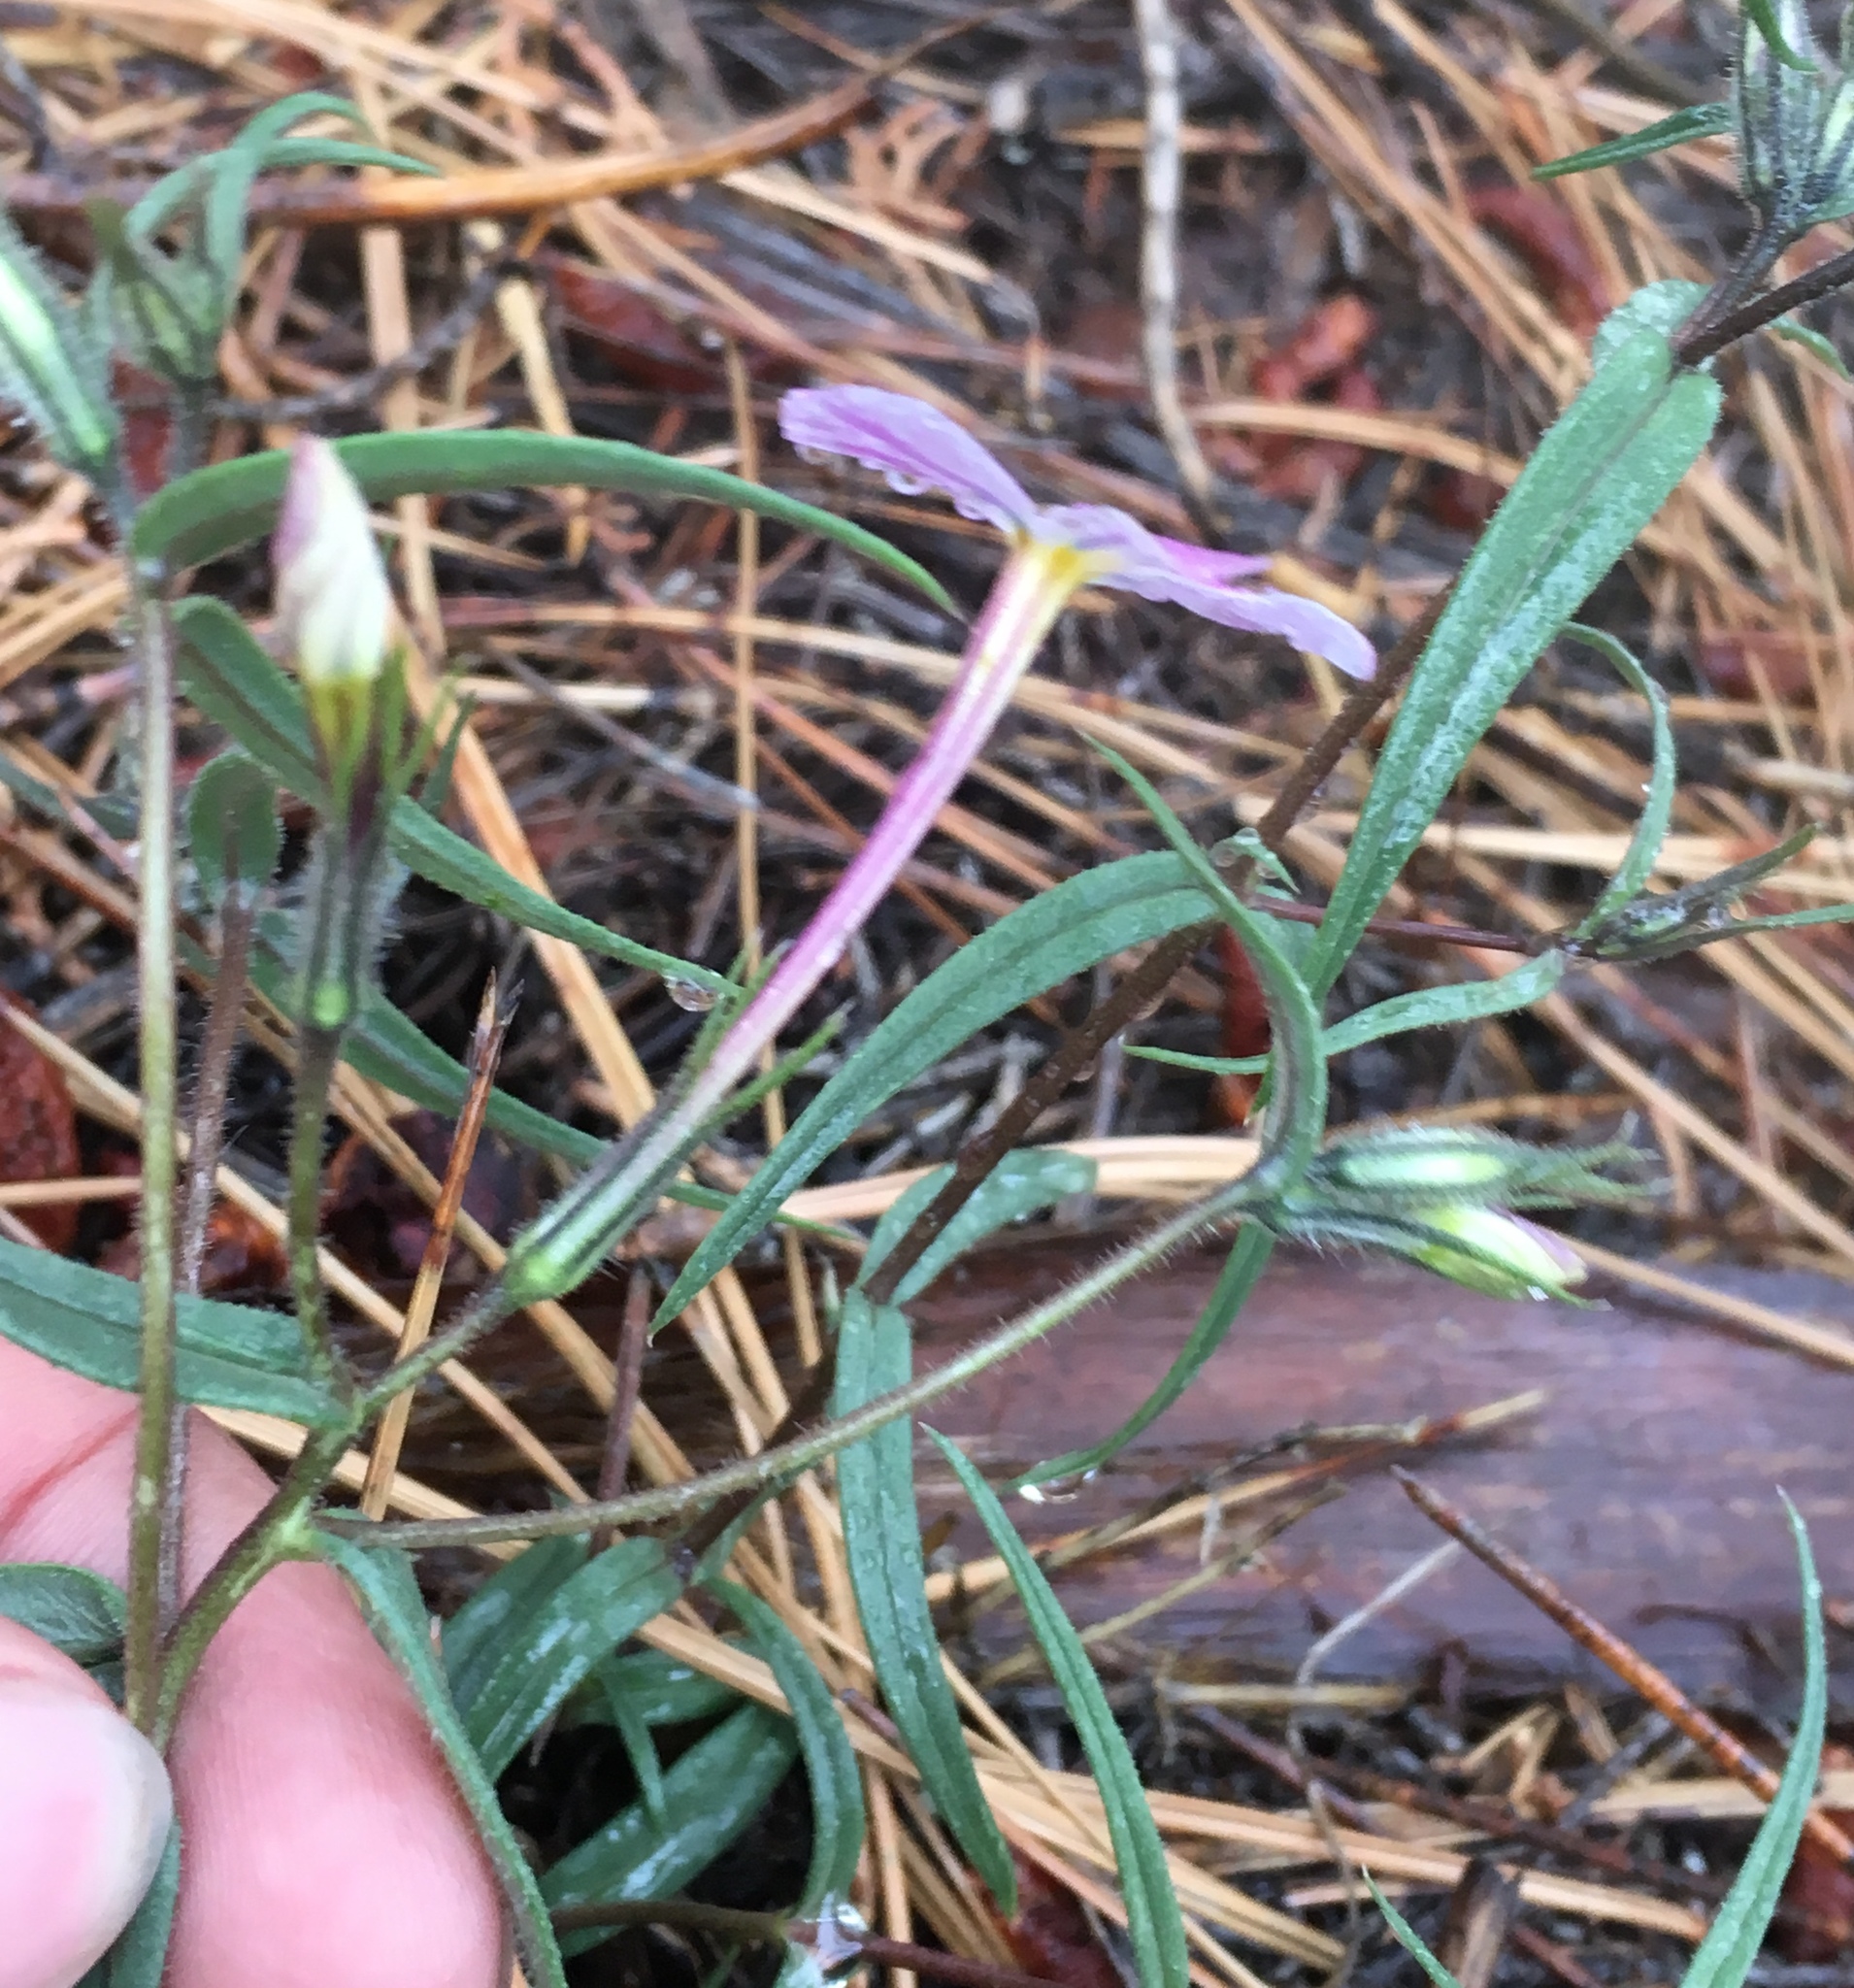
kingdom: Plantae
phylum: Tracheophyta
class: Magnoliopsida
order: Ericales
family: Polemoniaceae
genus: Phlox
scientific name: Phlox dolichantha
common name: Bear valley phlox
